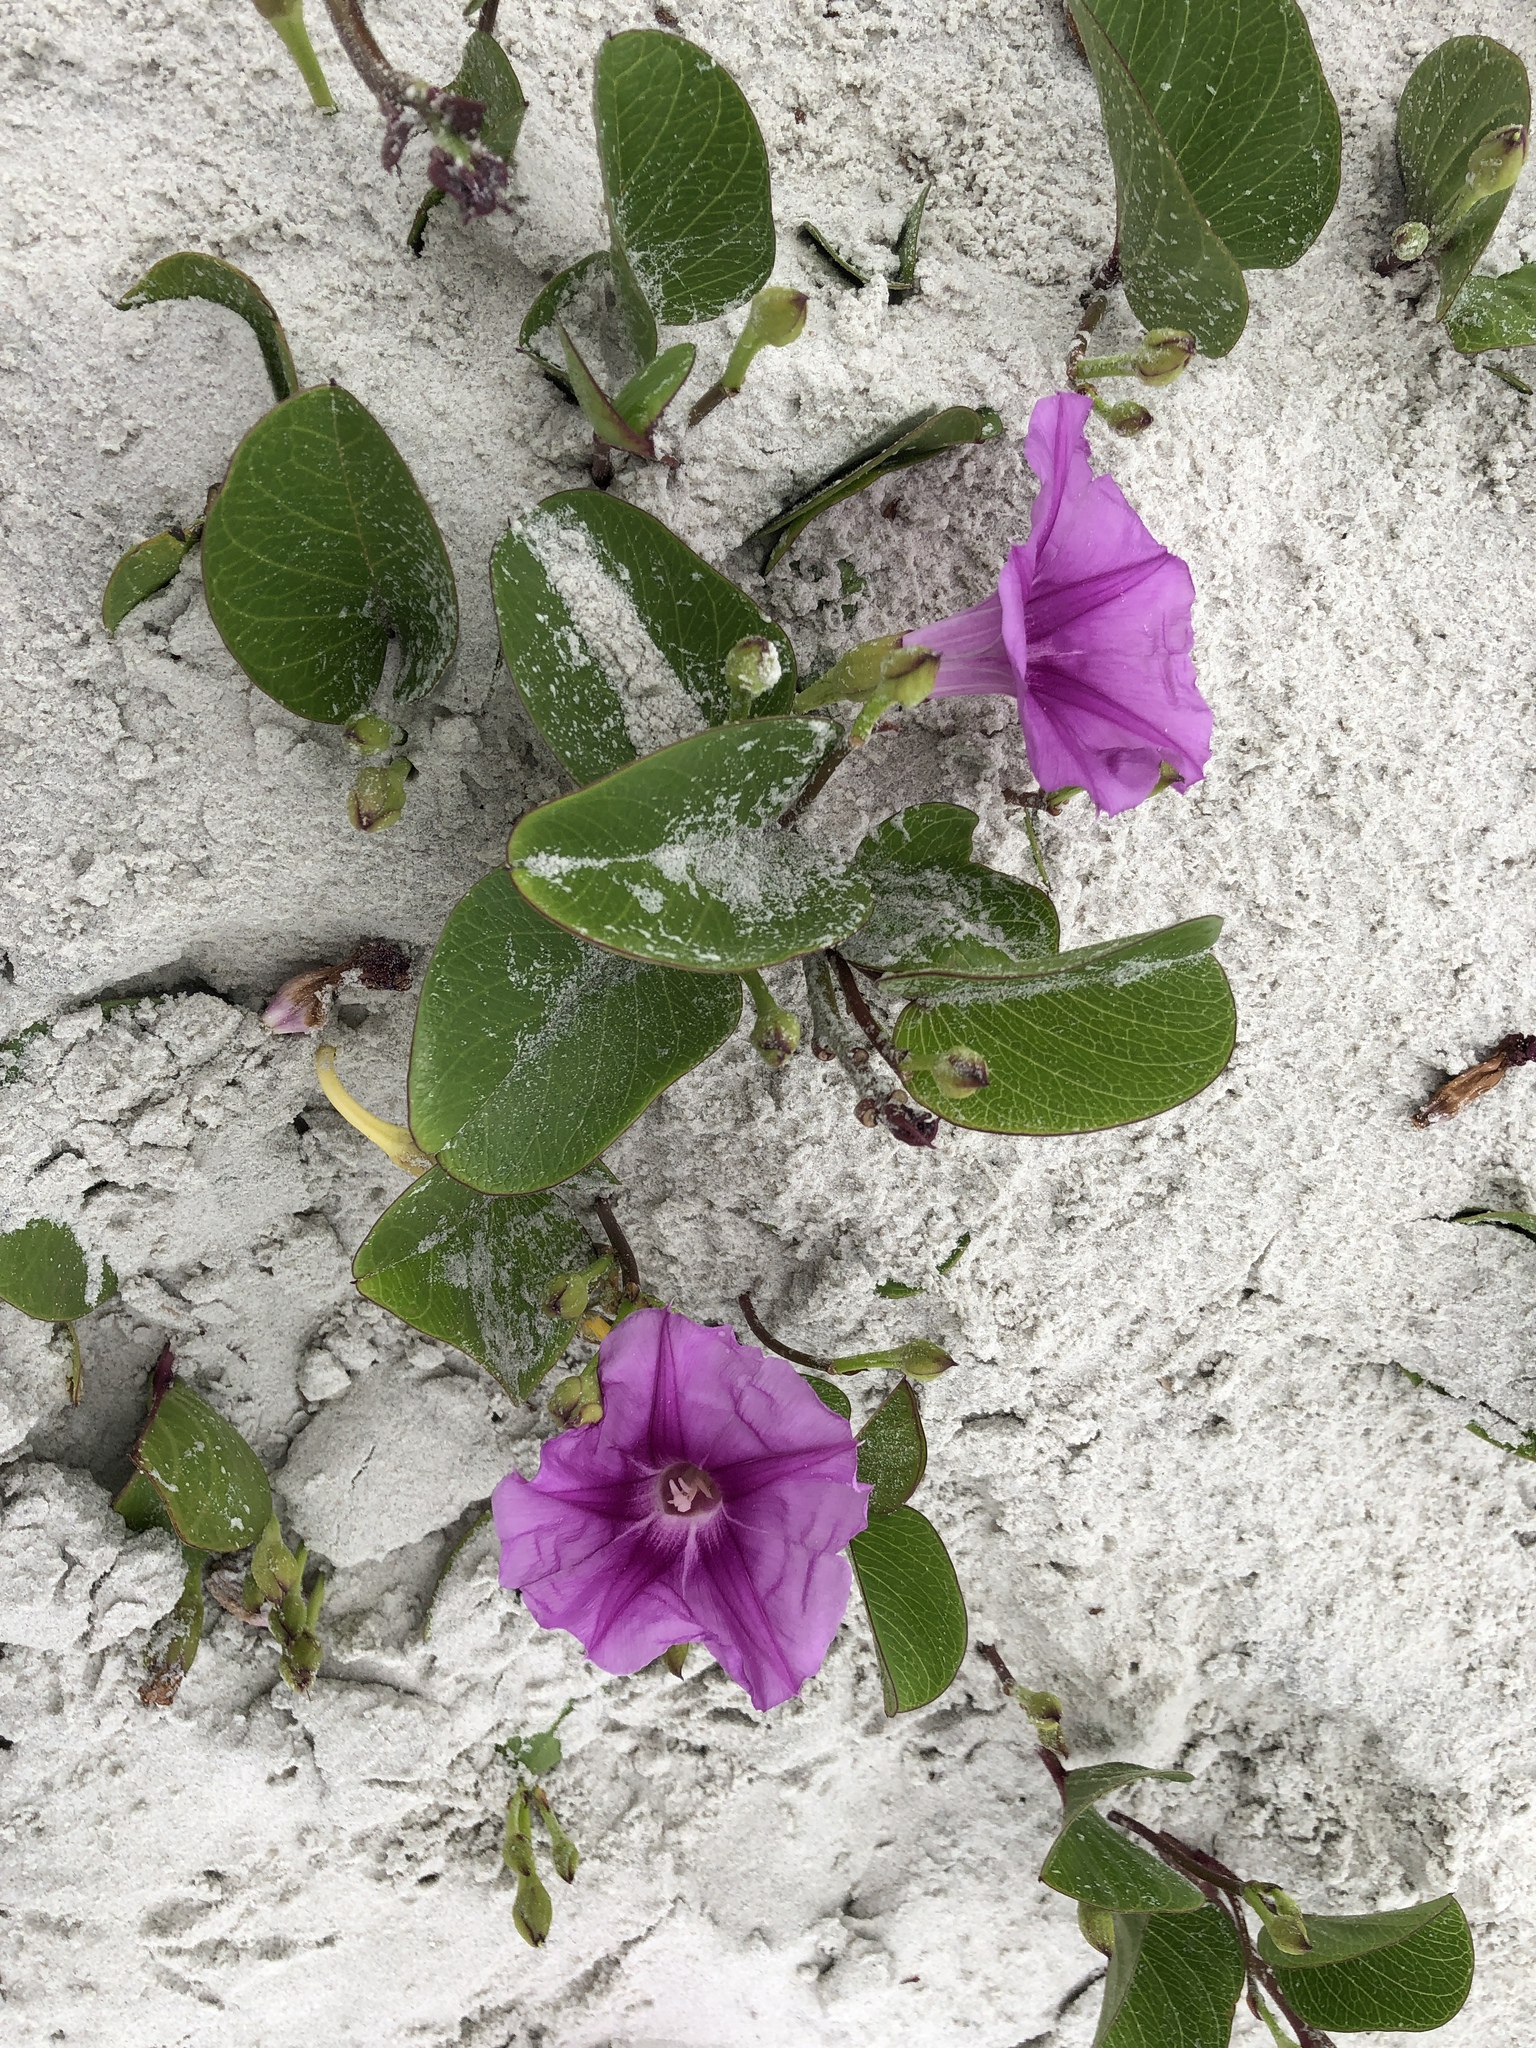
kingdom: Plantae
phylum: Tracheophyta
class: Magnoliopsida
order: Solanales
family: Convolvulaceae
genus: Ipomoea
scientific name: Ipomoea pes-caprae
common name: Beach morning glory
